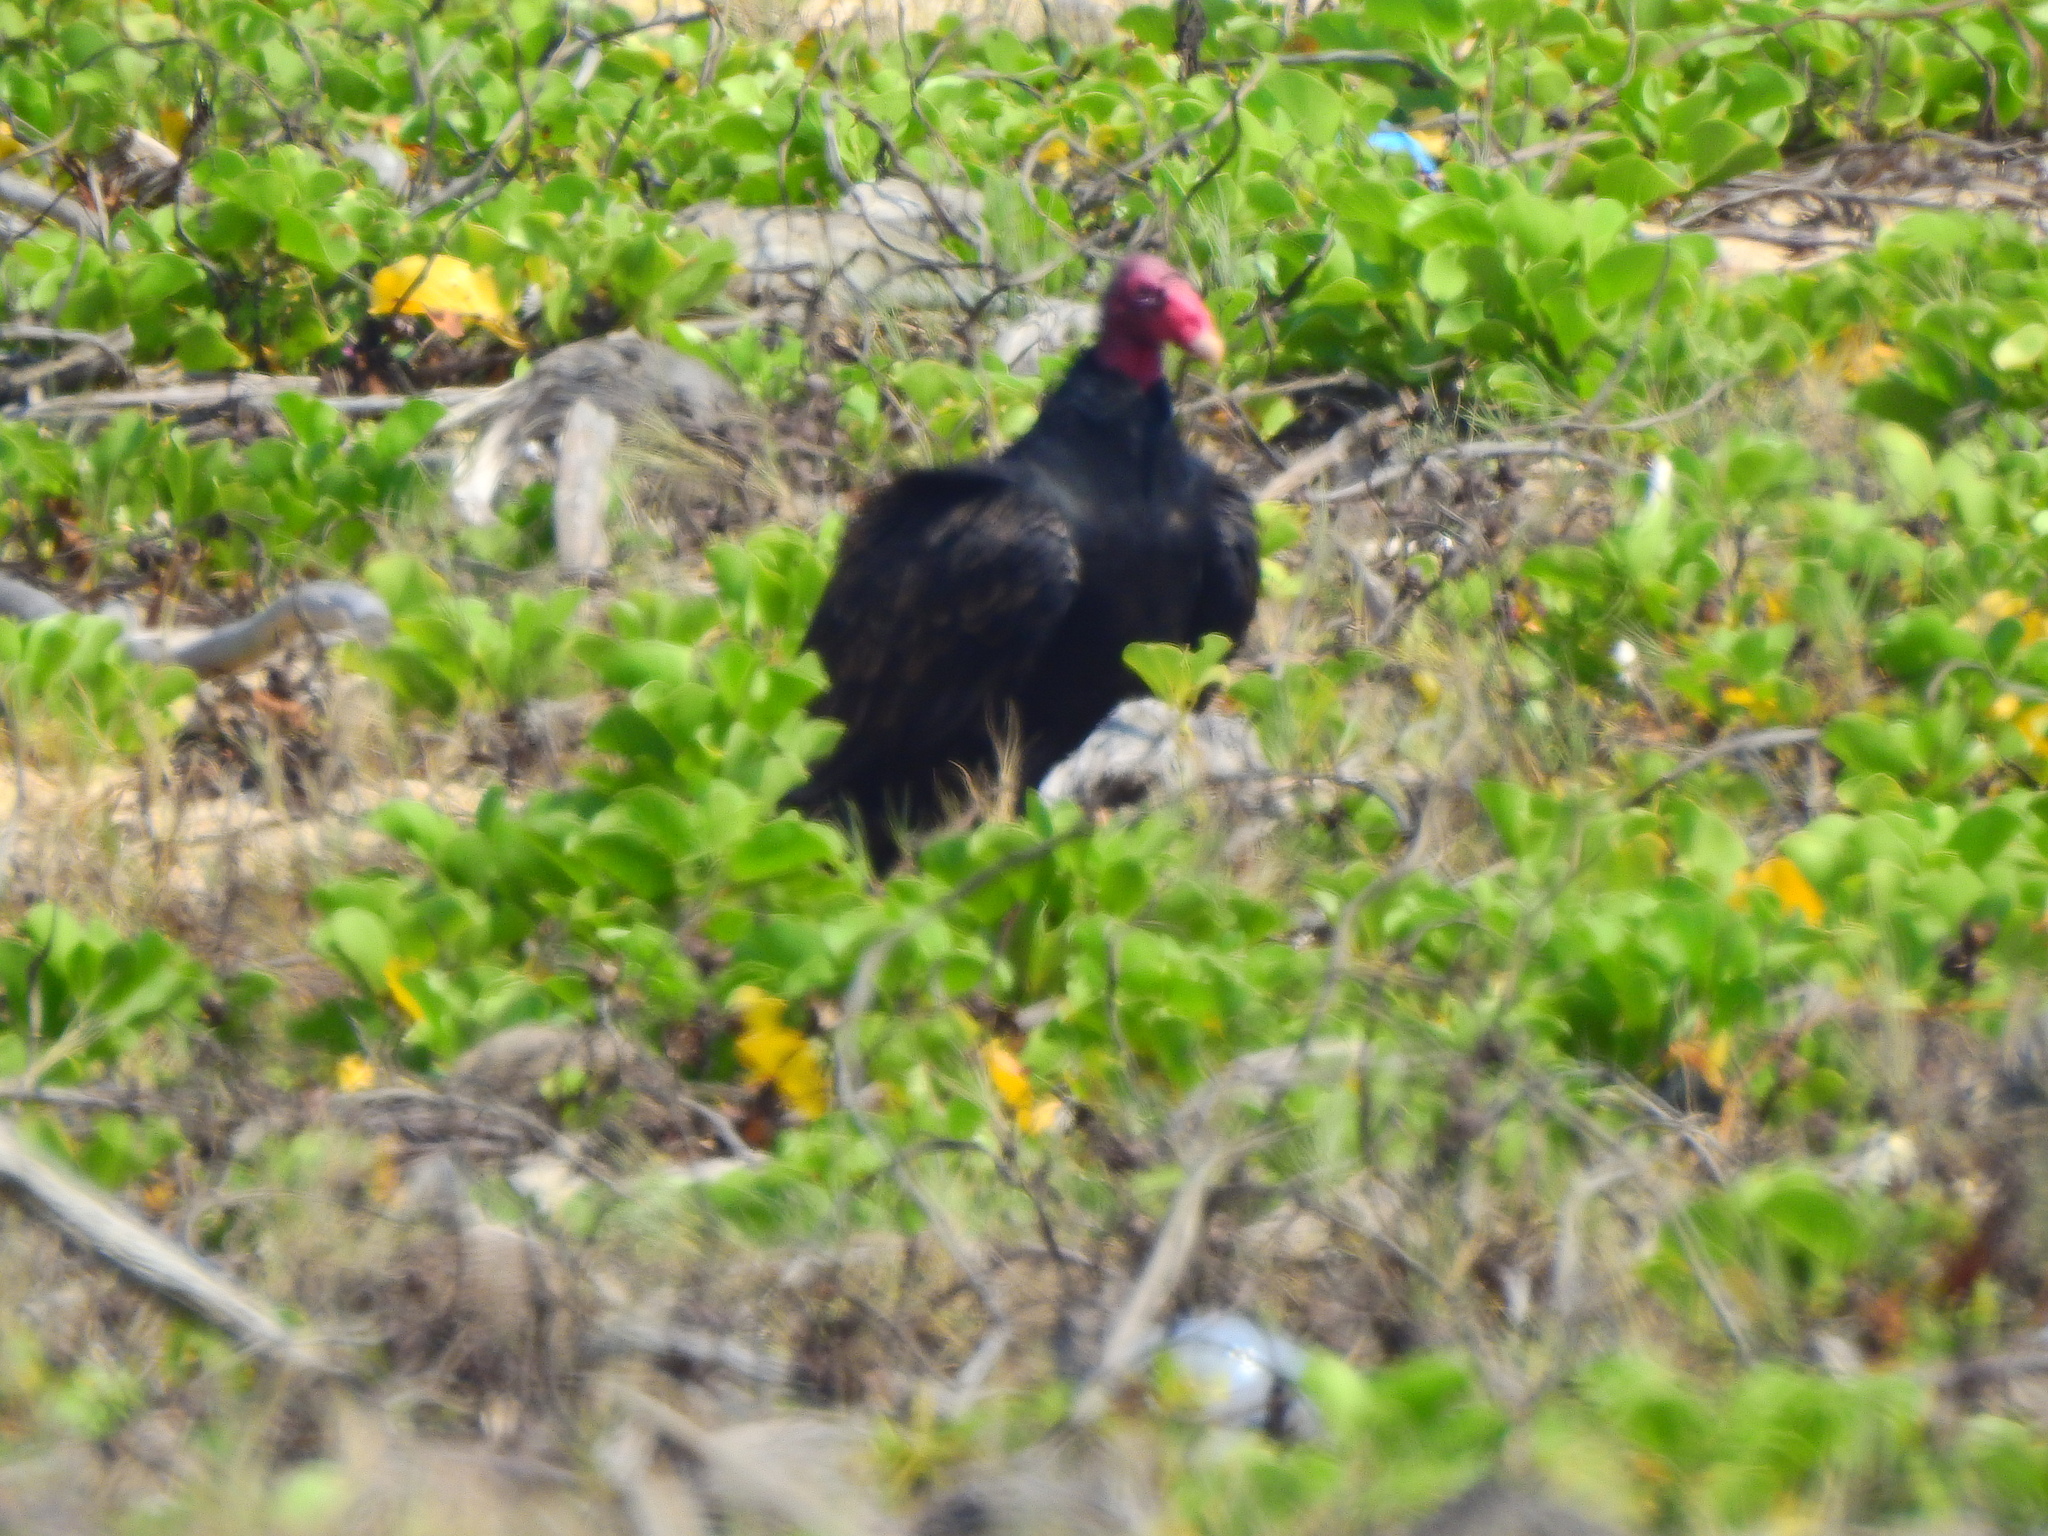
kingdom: Animalia
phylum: Chordata
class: Aves
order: Accipitriformes
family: Cathartidae
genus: Cathartes
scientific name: Cathartes aura
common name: Turkey vulture
